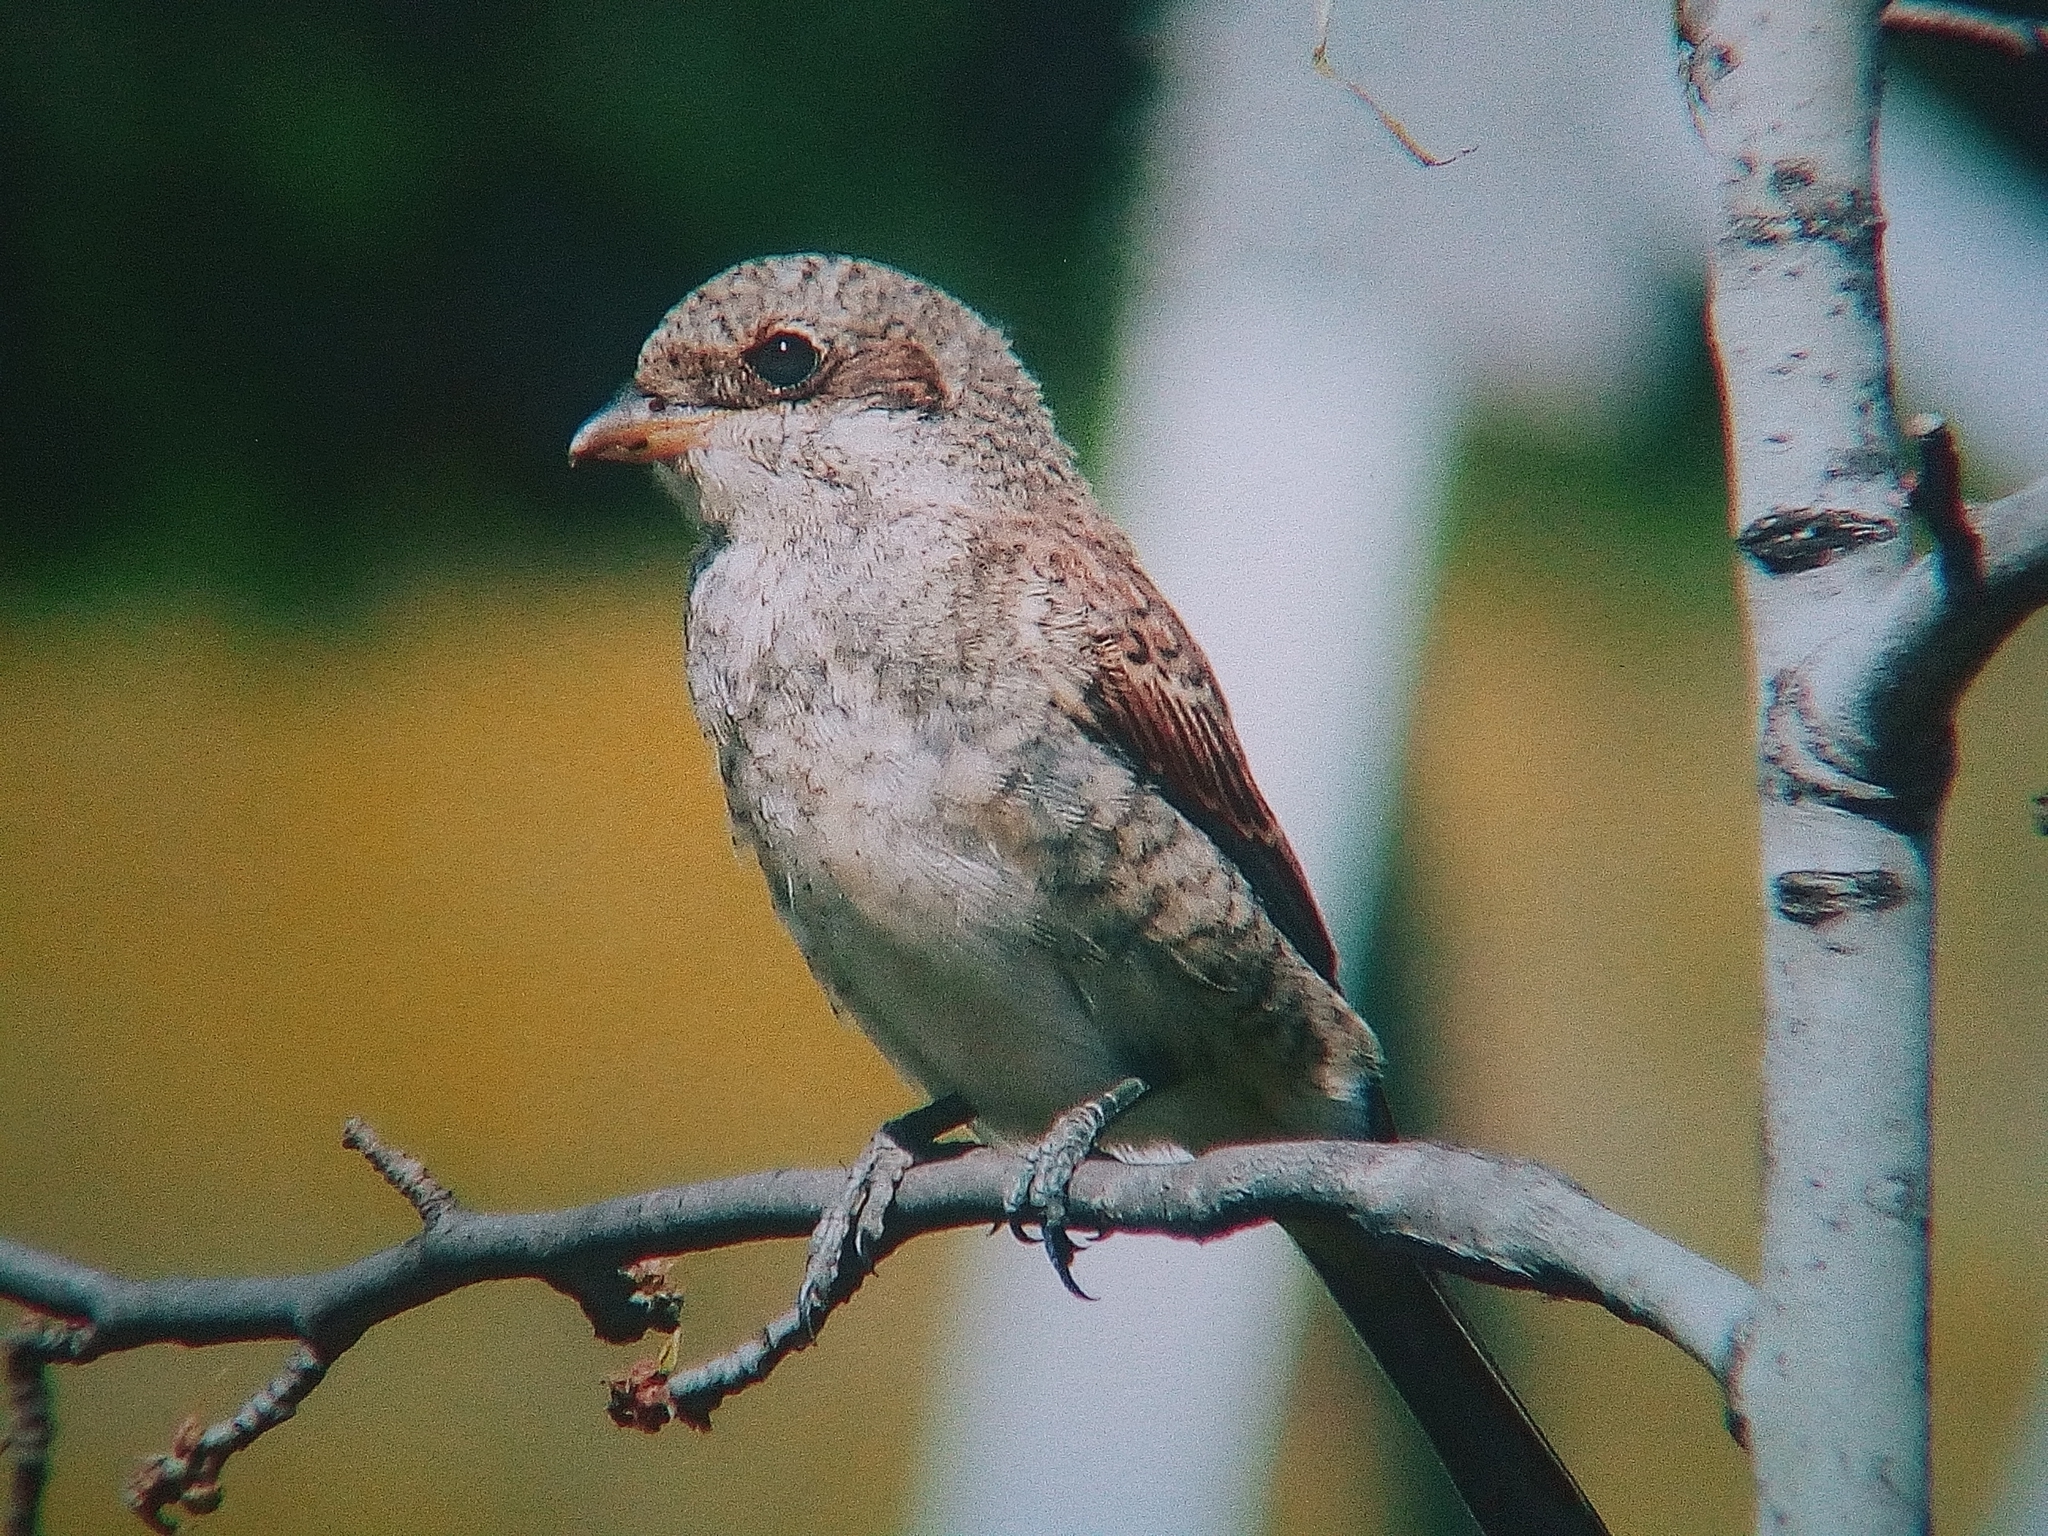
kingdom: Animalia
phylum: Chordata
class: Aves
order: Passeriformes
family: Laniidae
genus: Lanius
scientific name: Lanius collurio
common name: Red-backed shrike
